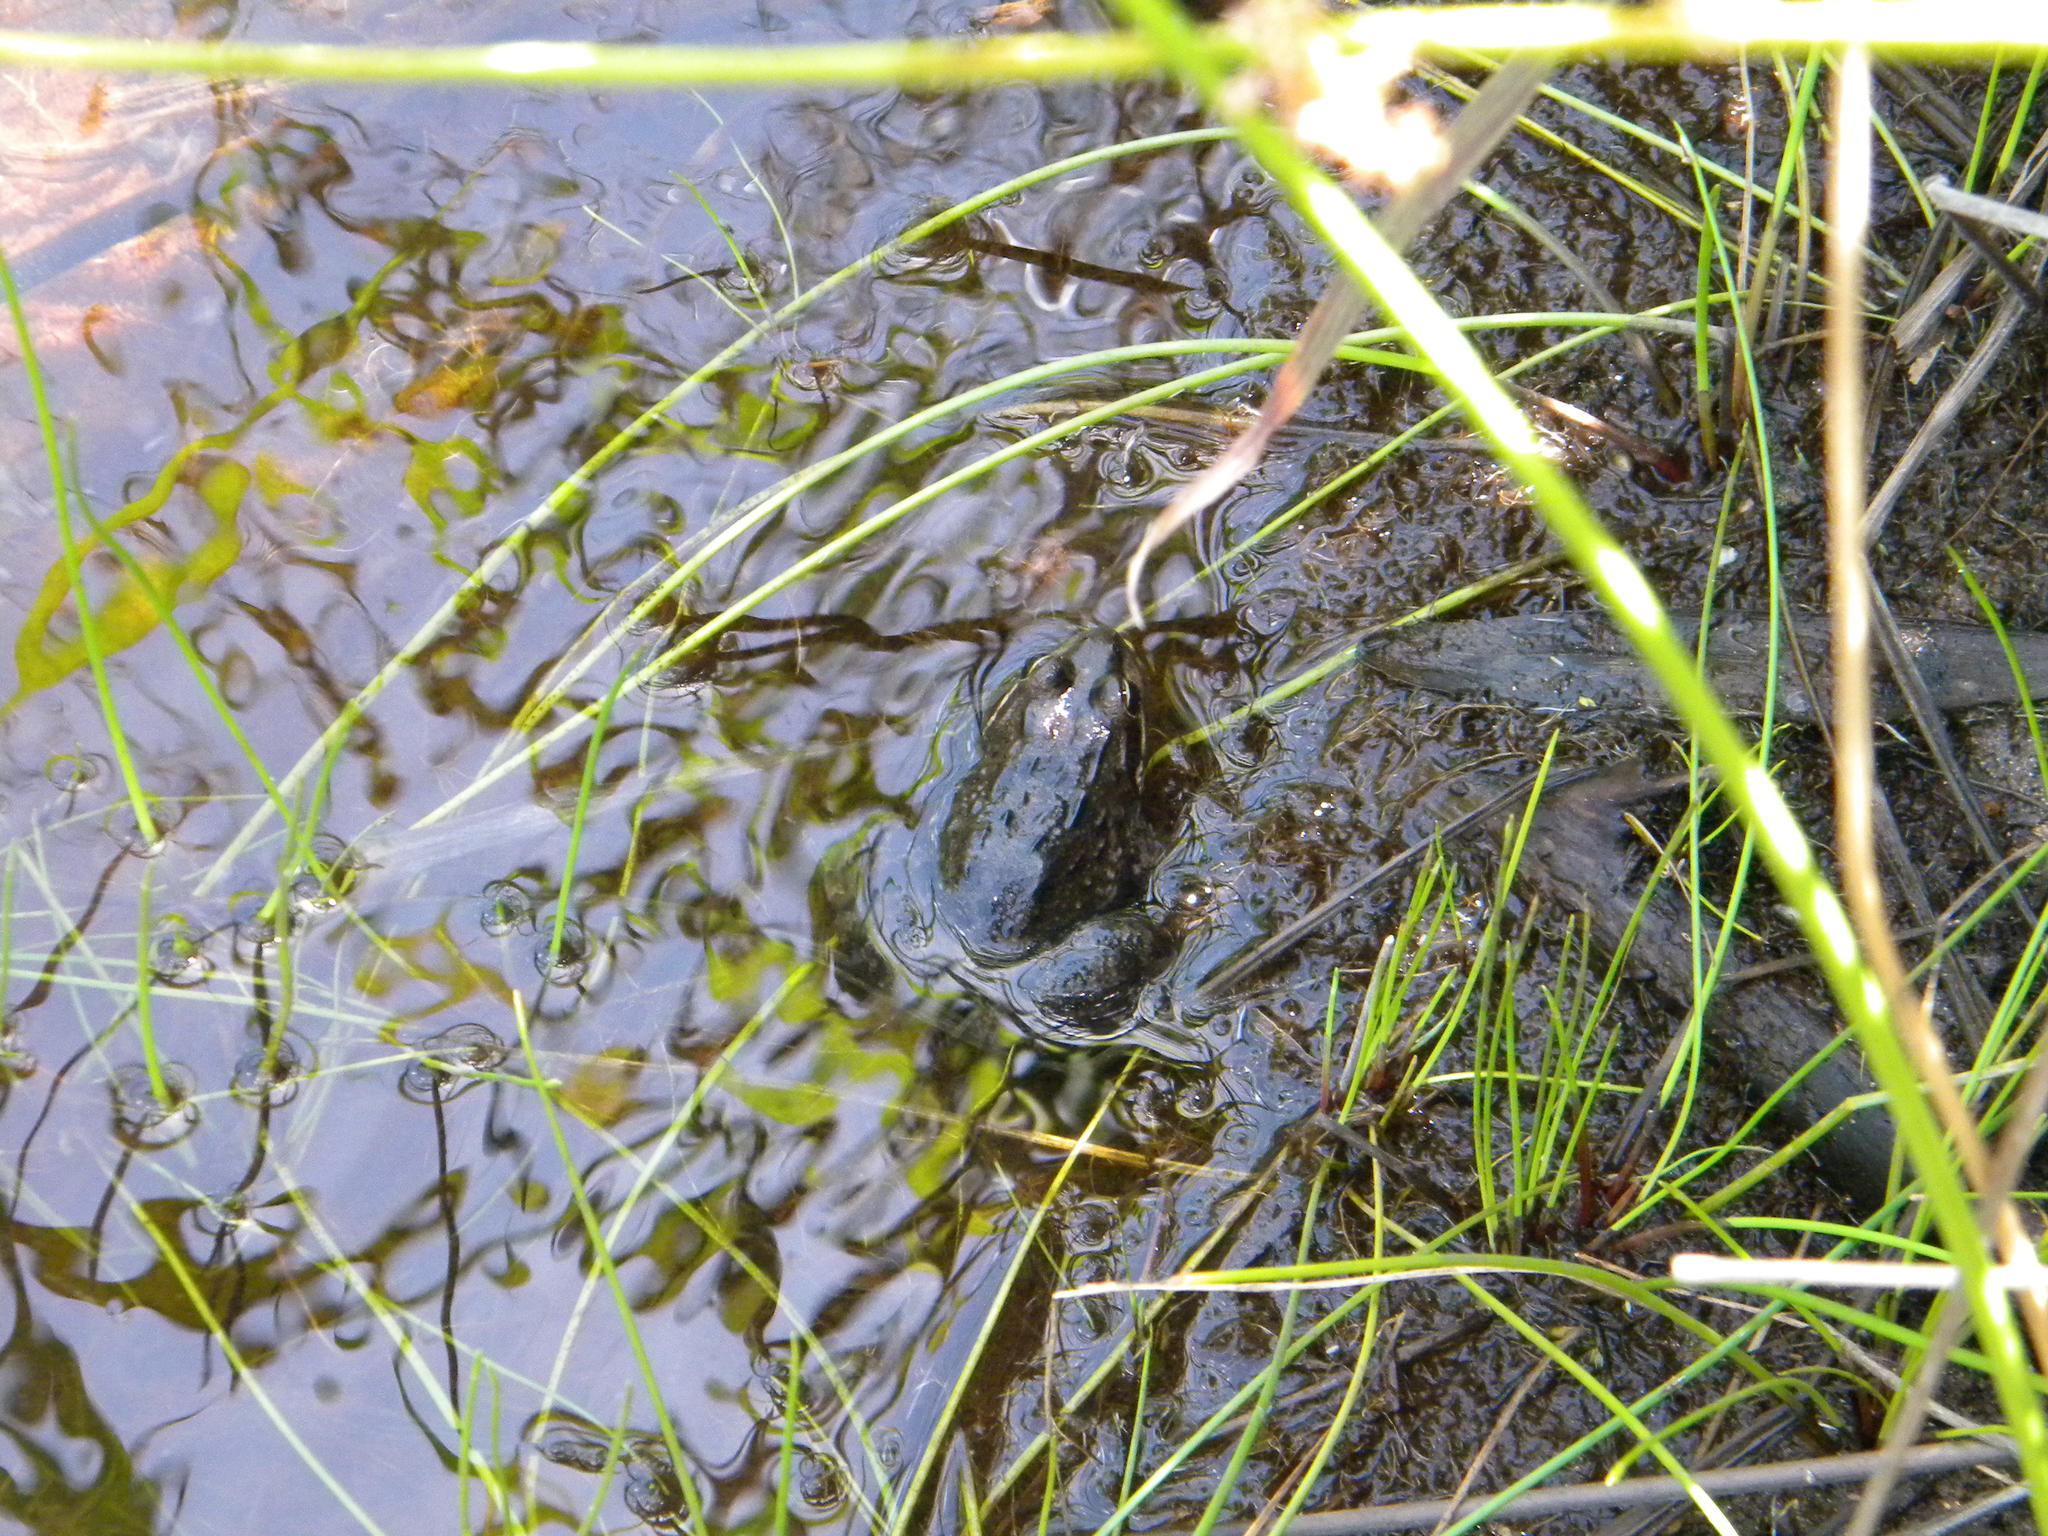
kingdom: Animalia
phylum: Chordata
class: Amphibia
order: Anura
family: Pyxicephalidae
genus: Amietia
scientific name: Amietia fuscigula
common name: Cape rana
